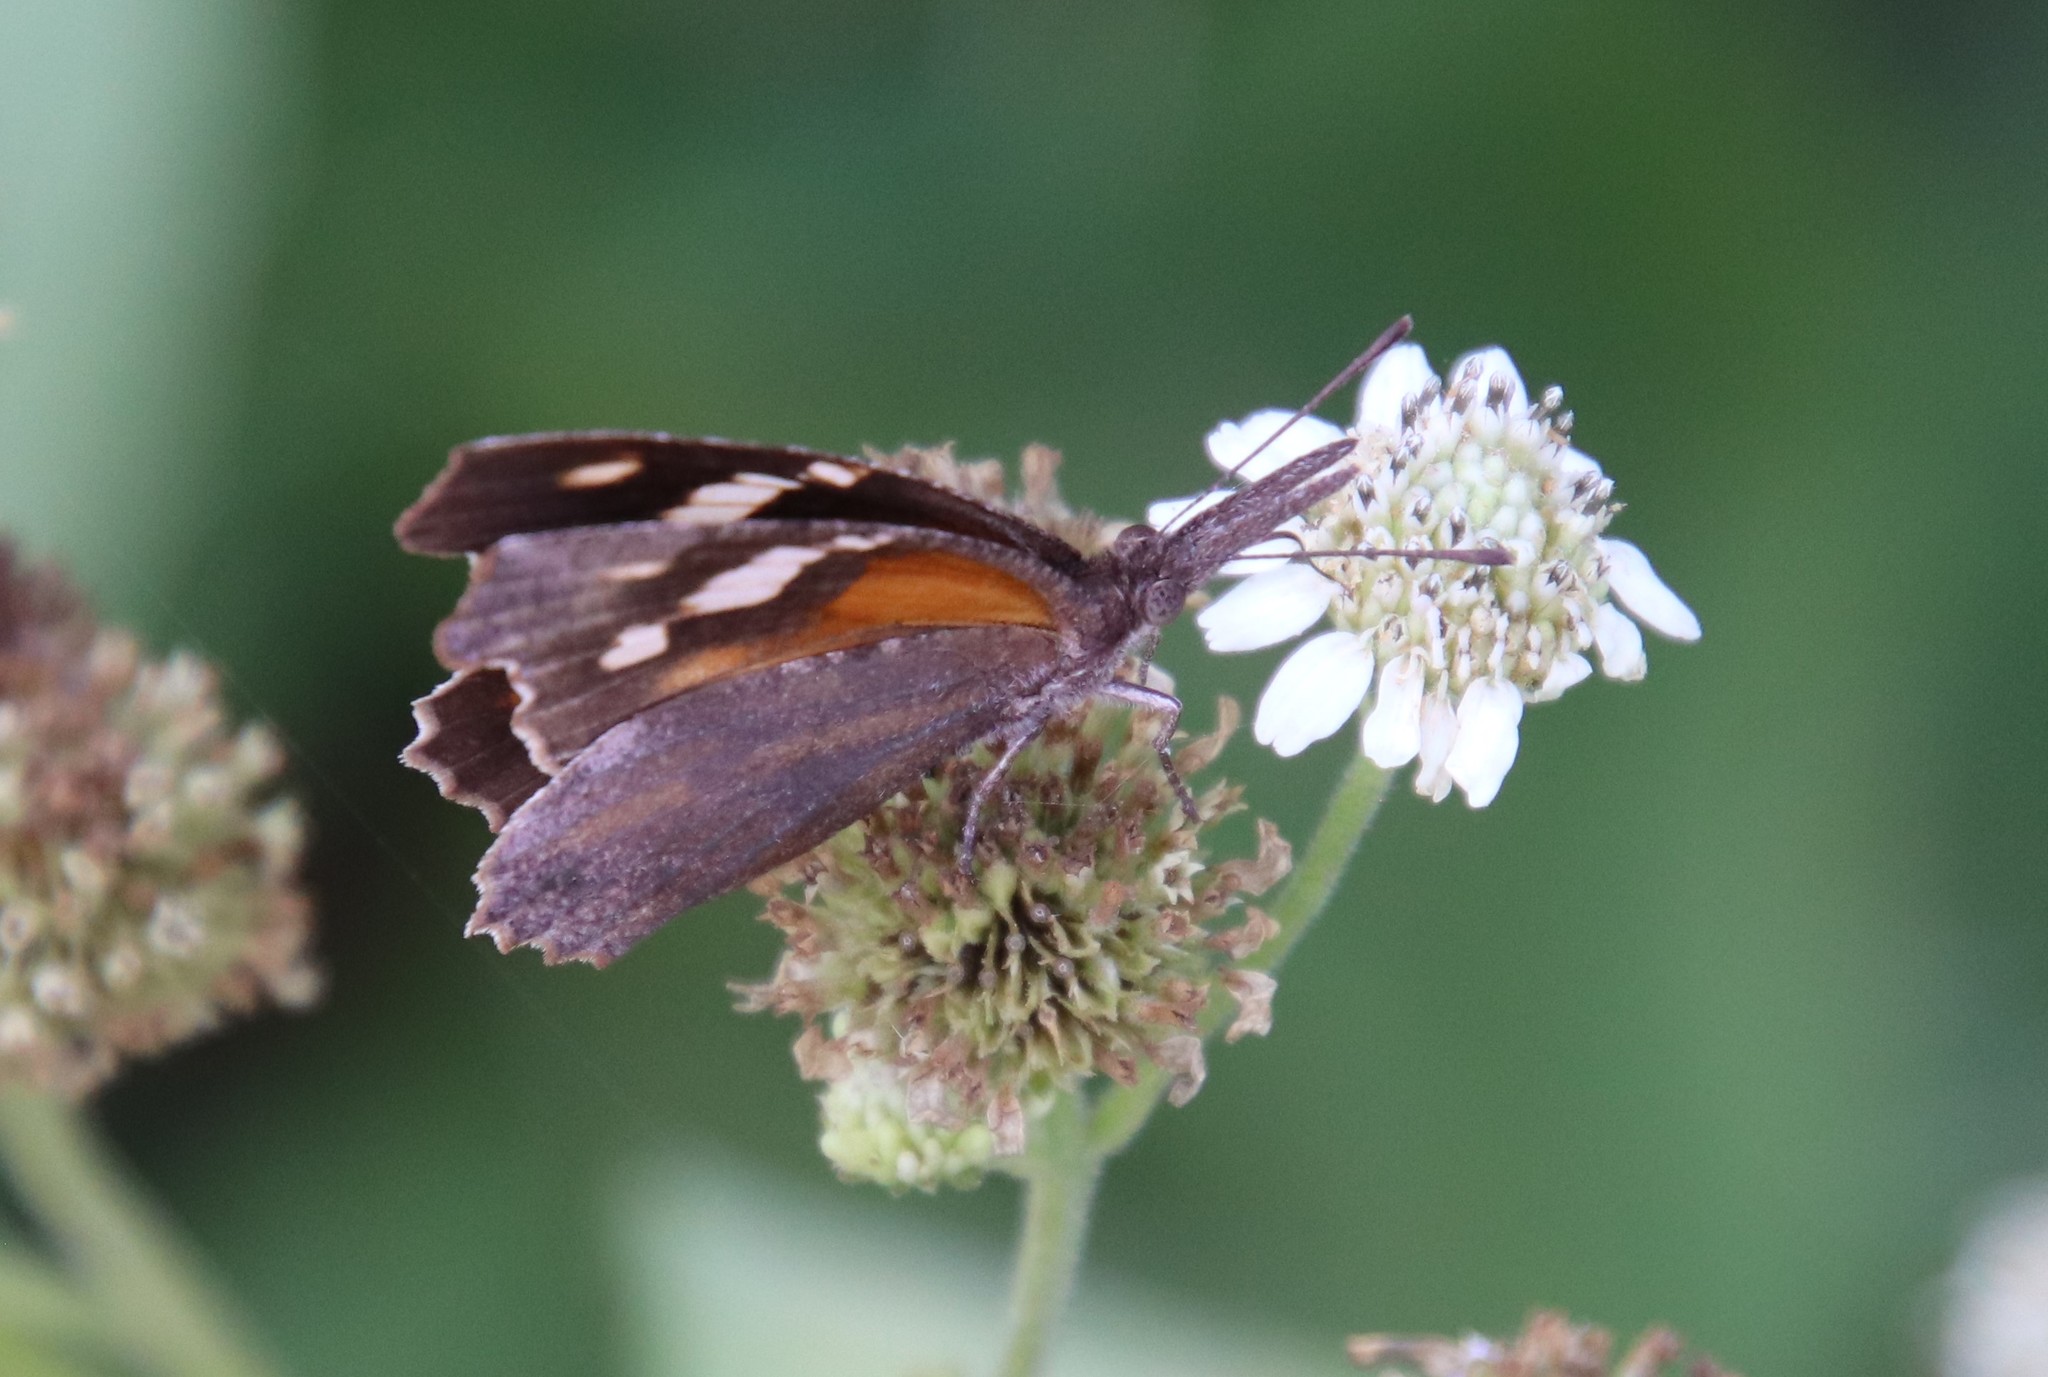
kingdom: Animalia
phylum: Arthropoda
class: Insecta
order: Lepidoptera
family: Nymphalidae
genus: Libytheana
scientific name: Libytheana carinenta
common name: American snout
